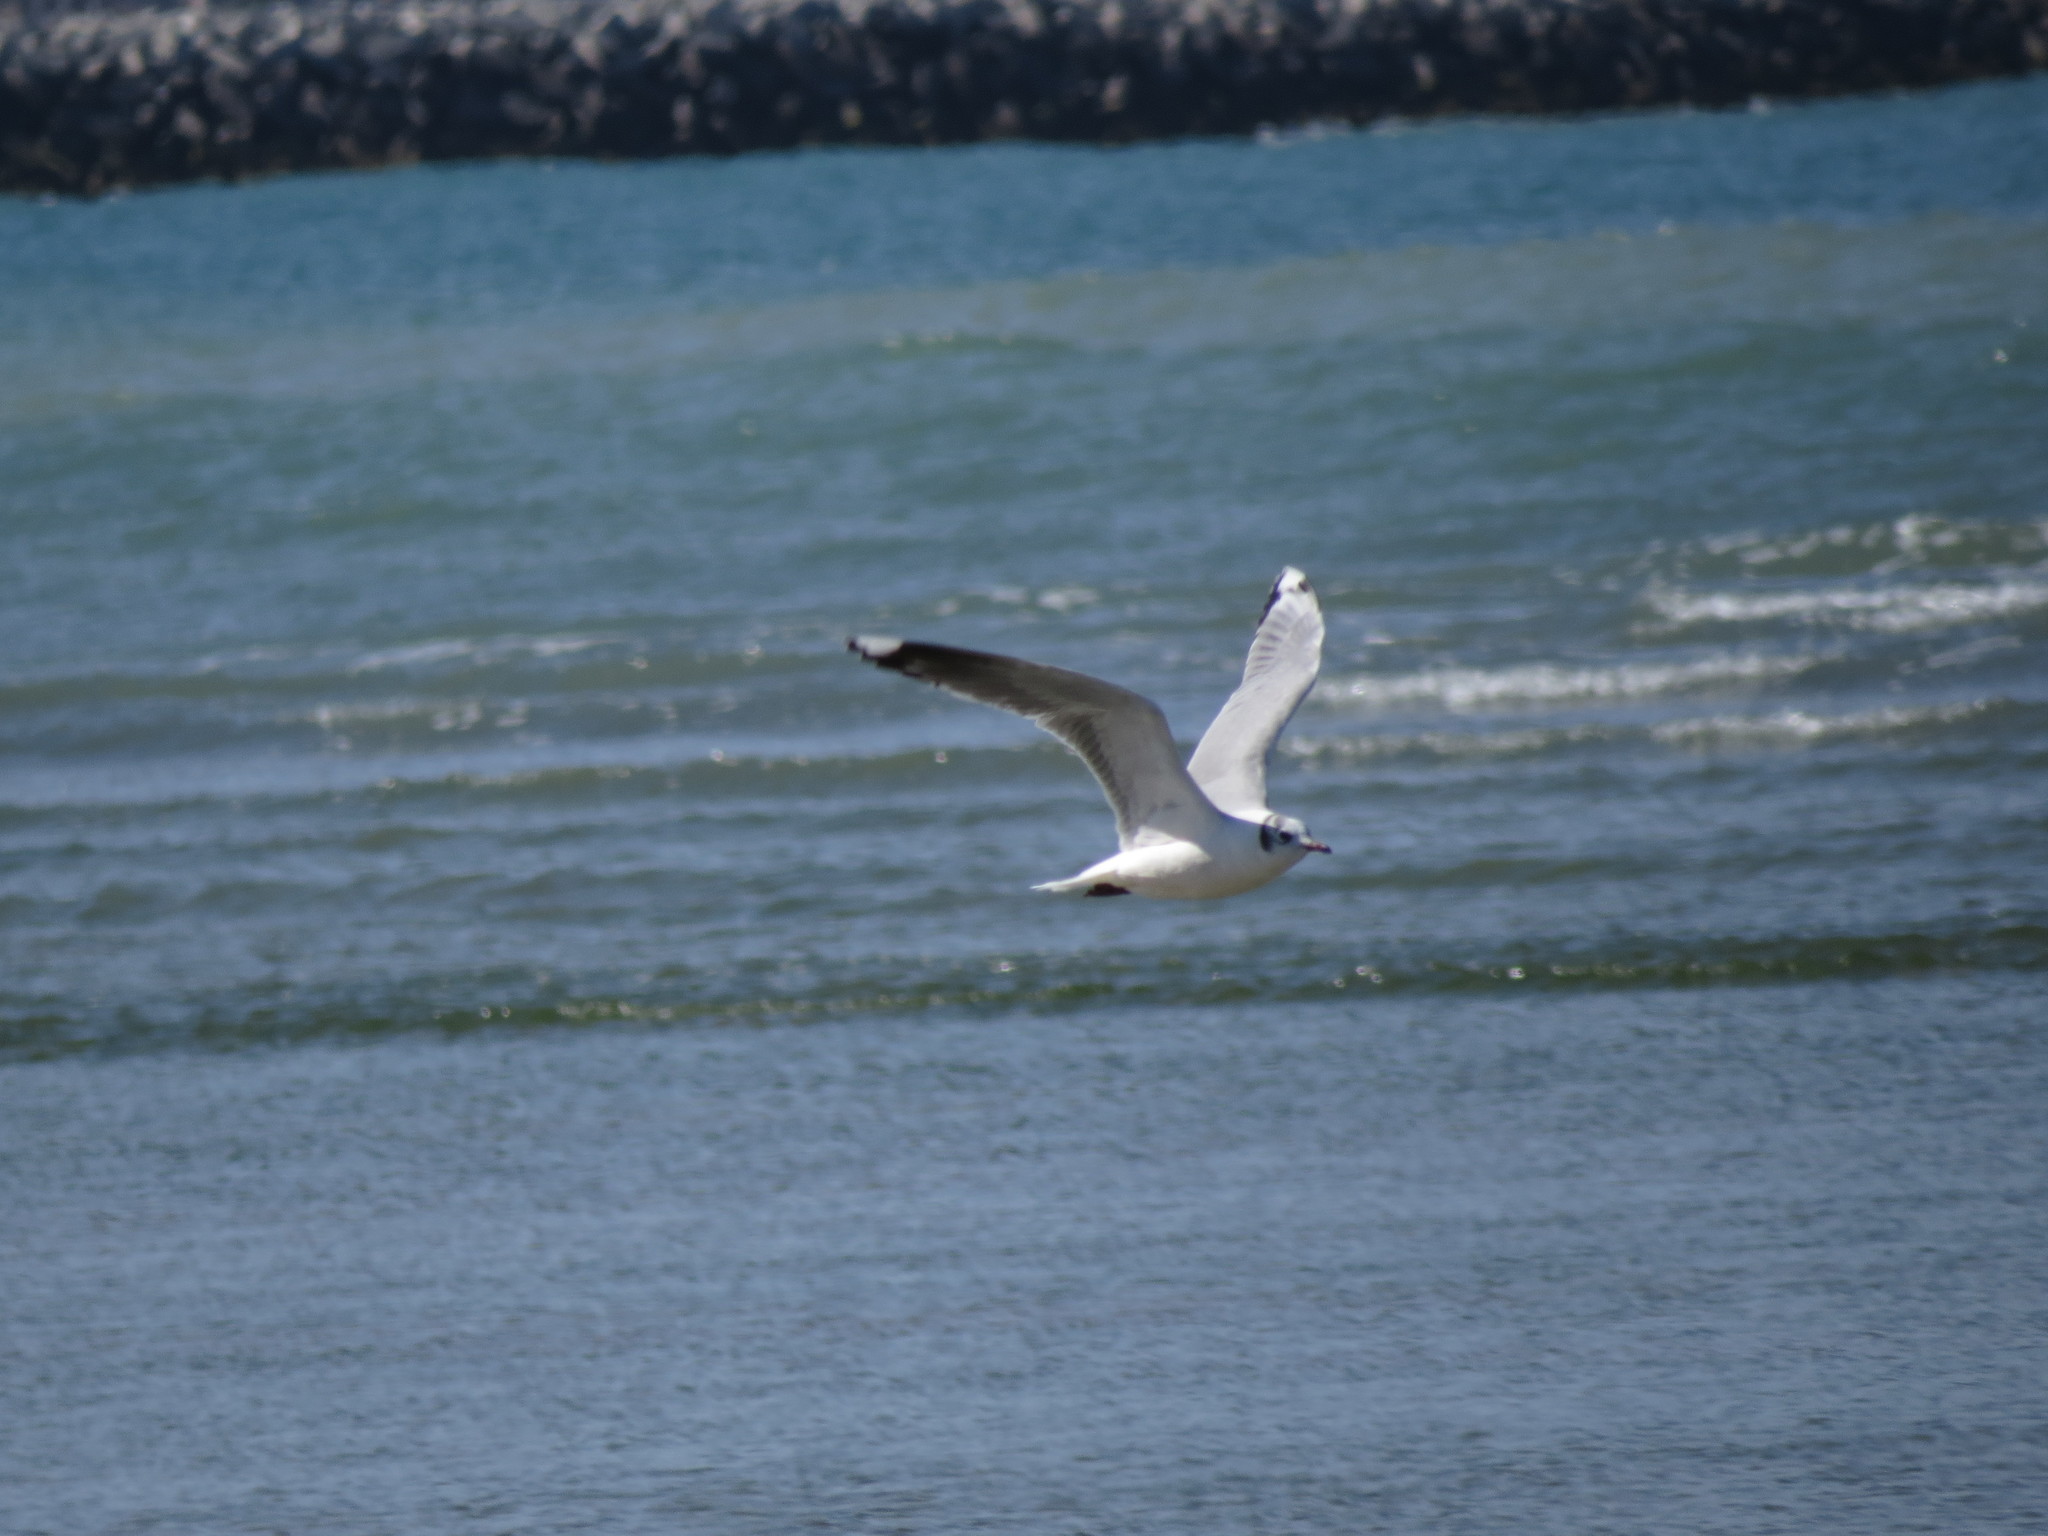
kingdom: Animalia
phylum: Chordata
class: Aves
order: Charadriiformes
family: Laridae
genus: Chroicocephalus
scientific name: Chroicocephalus maculipennis
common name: Brown-hooded gull
